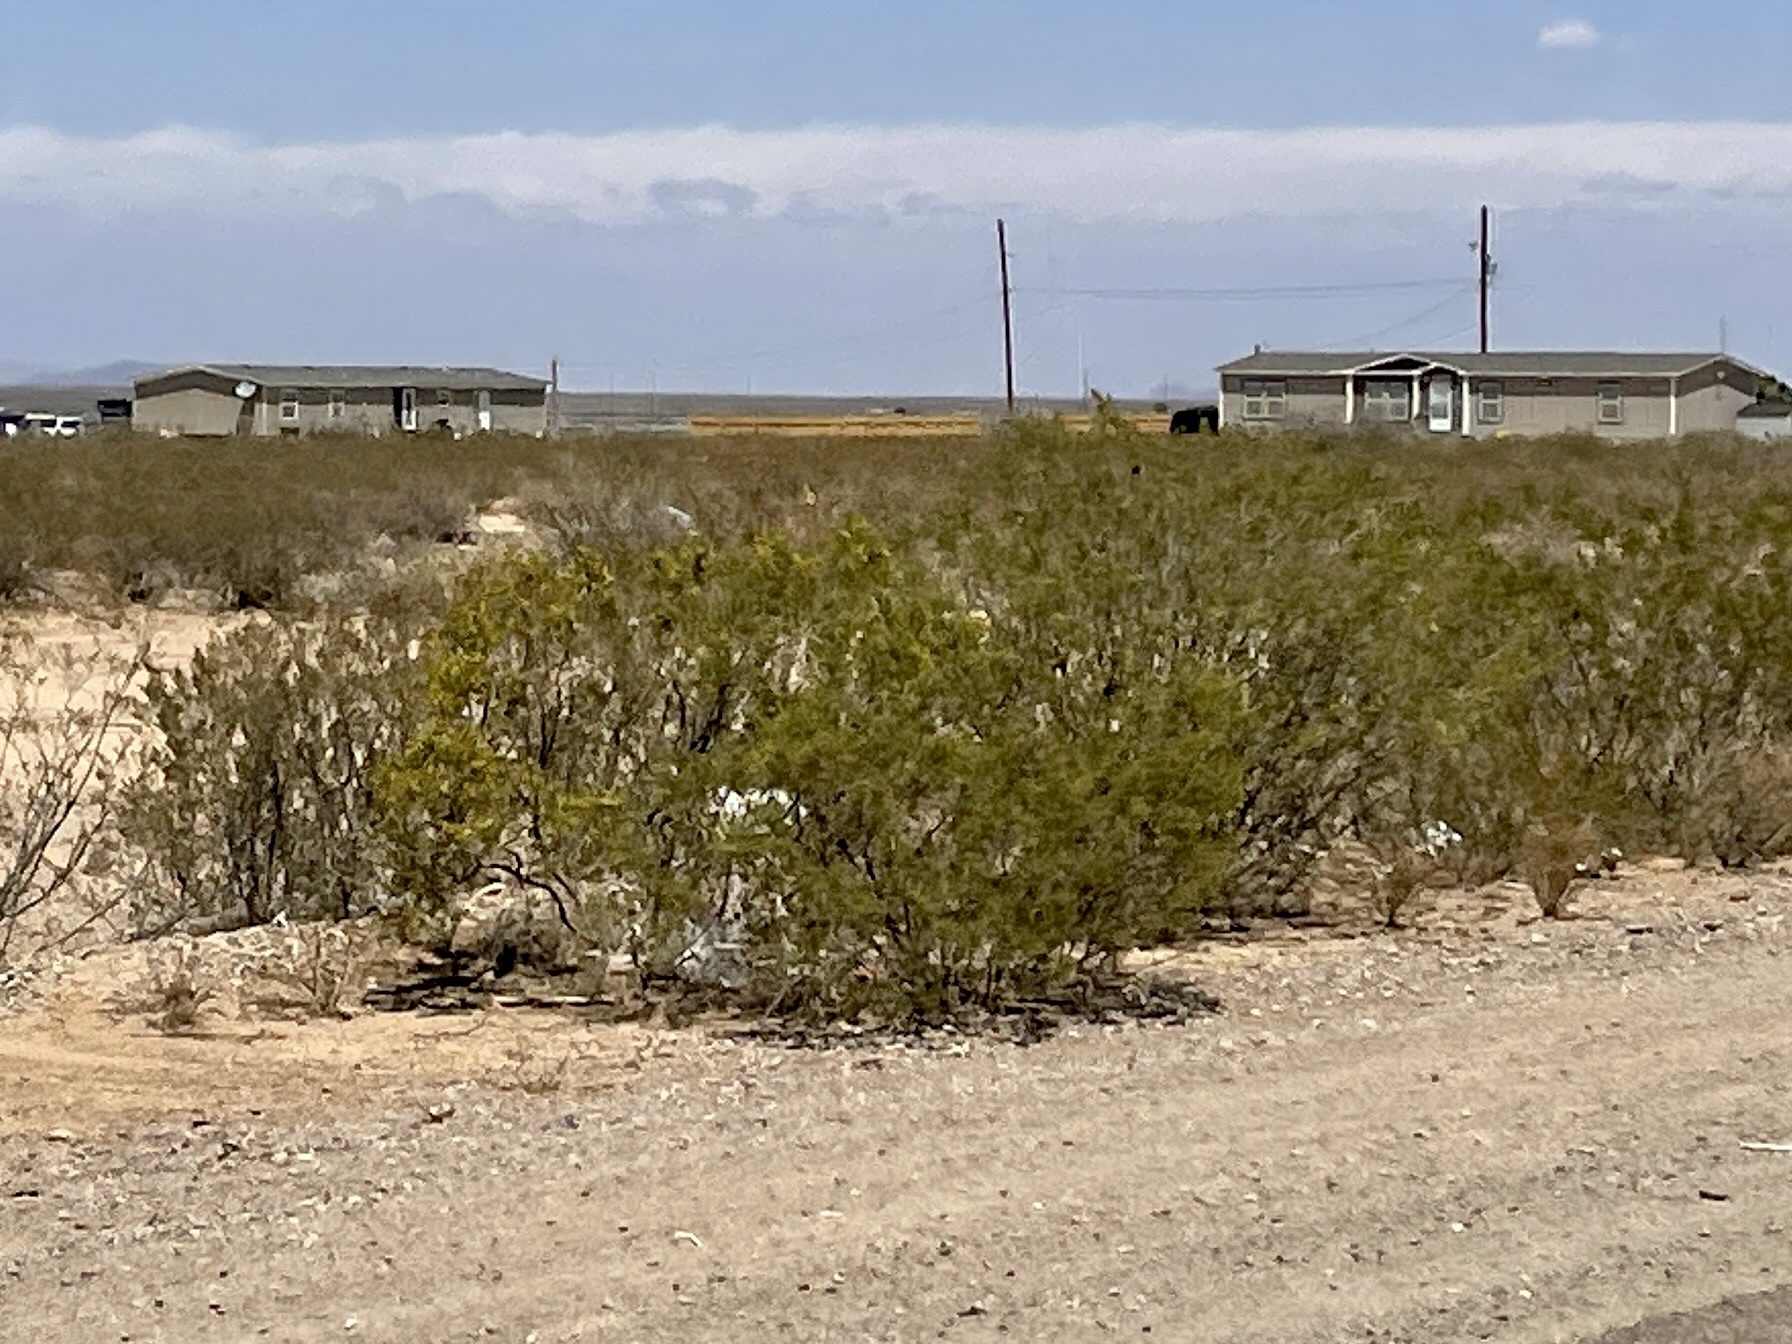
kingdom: Plantae
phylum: Tracheophyta
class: Magnoliopsida
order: Zygophyllales
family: Zygophyllaceae
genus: Larrea
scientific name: Larrea tridentata
